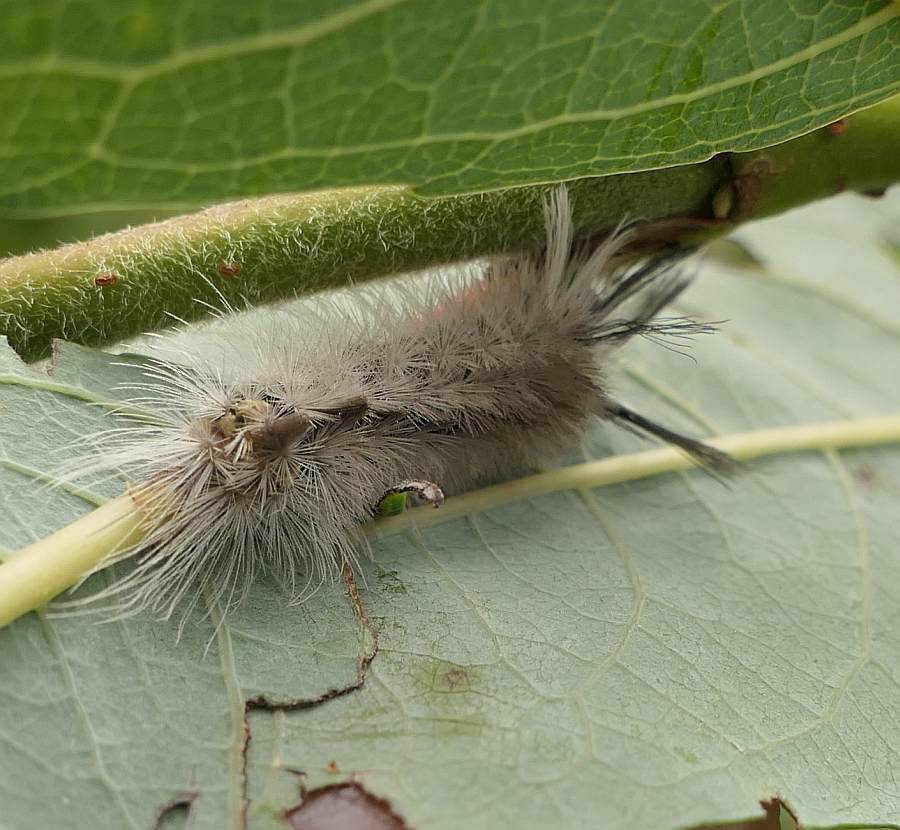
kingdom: Animalia
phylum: Arthropoda
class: Insecta
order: Lepidoptera
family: Erebidae
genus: Halysidota
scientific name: Halysidota tessellaris
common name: Banded tussock moth
